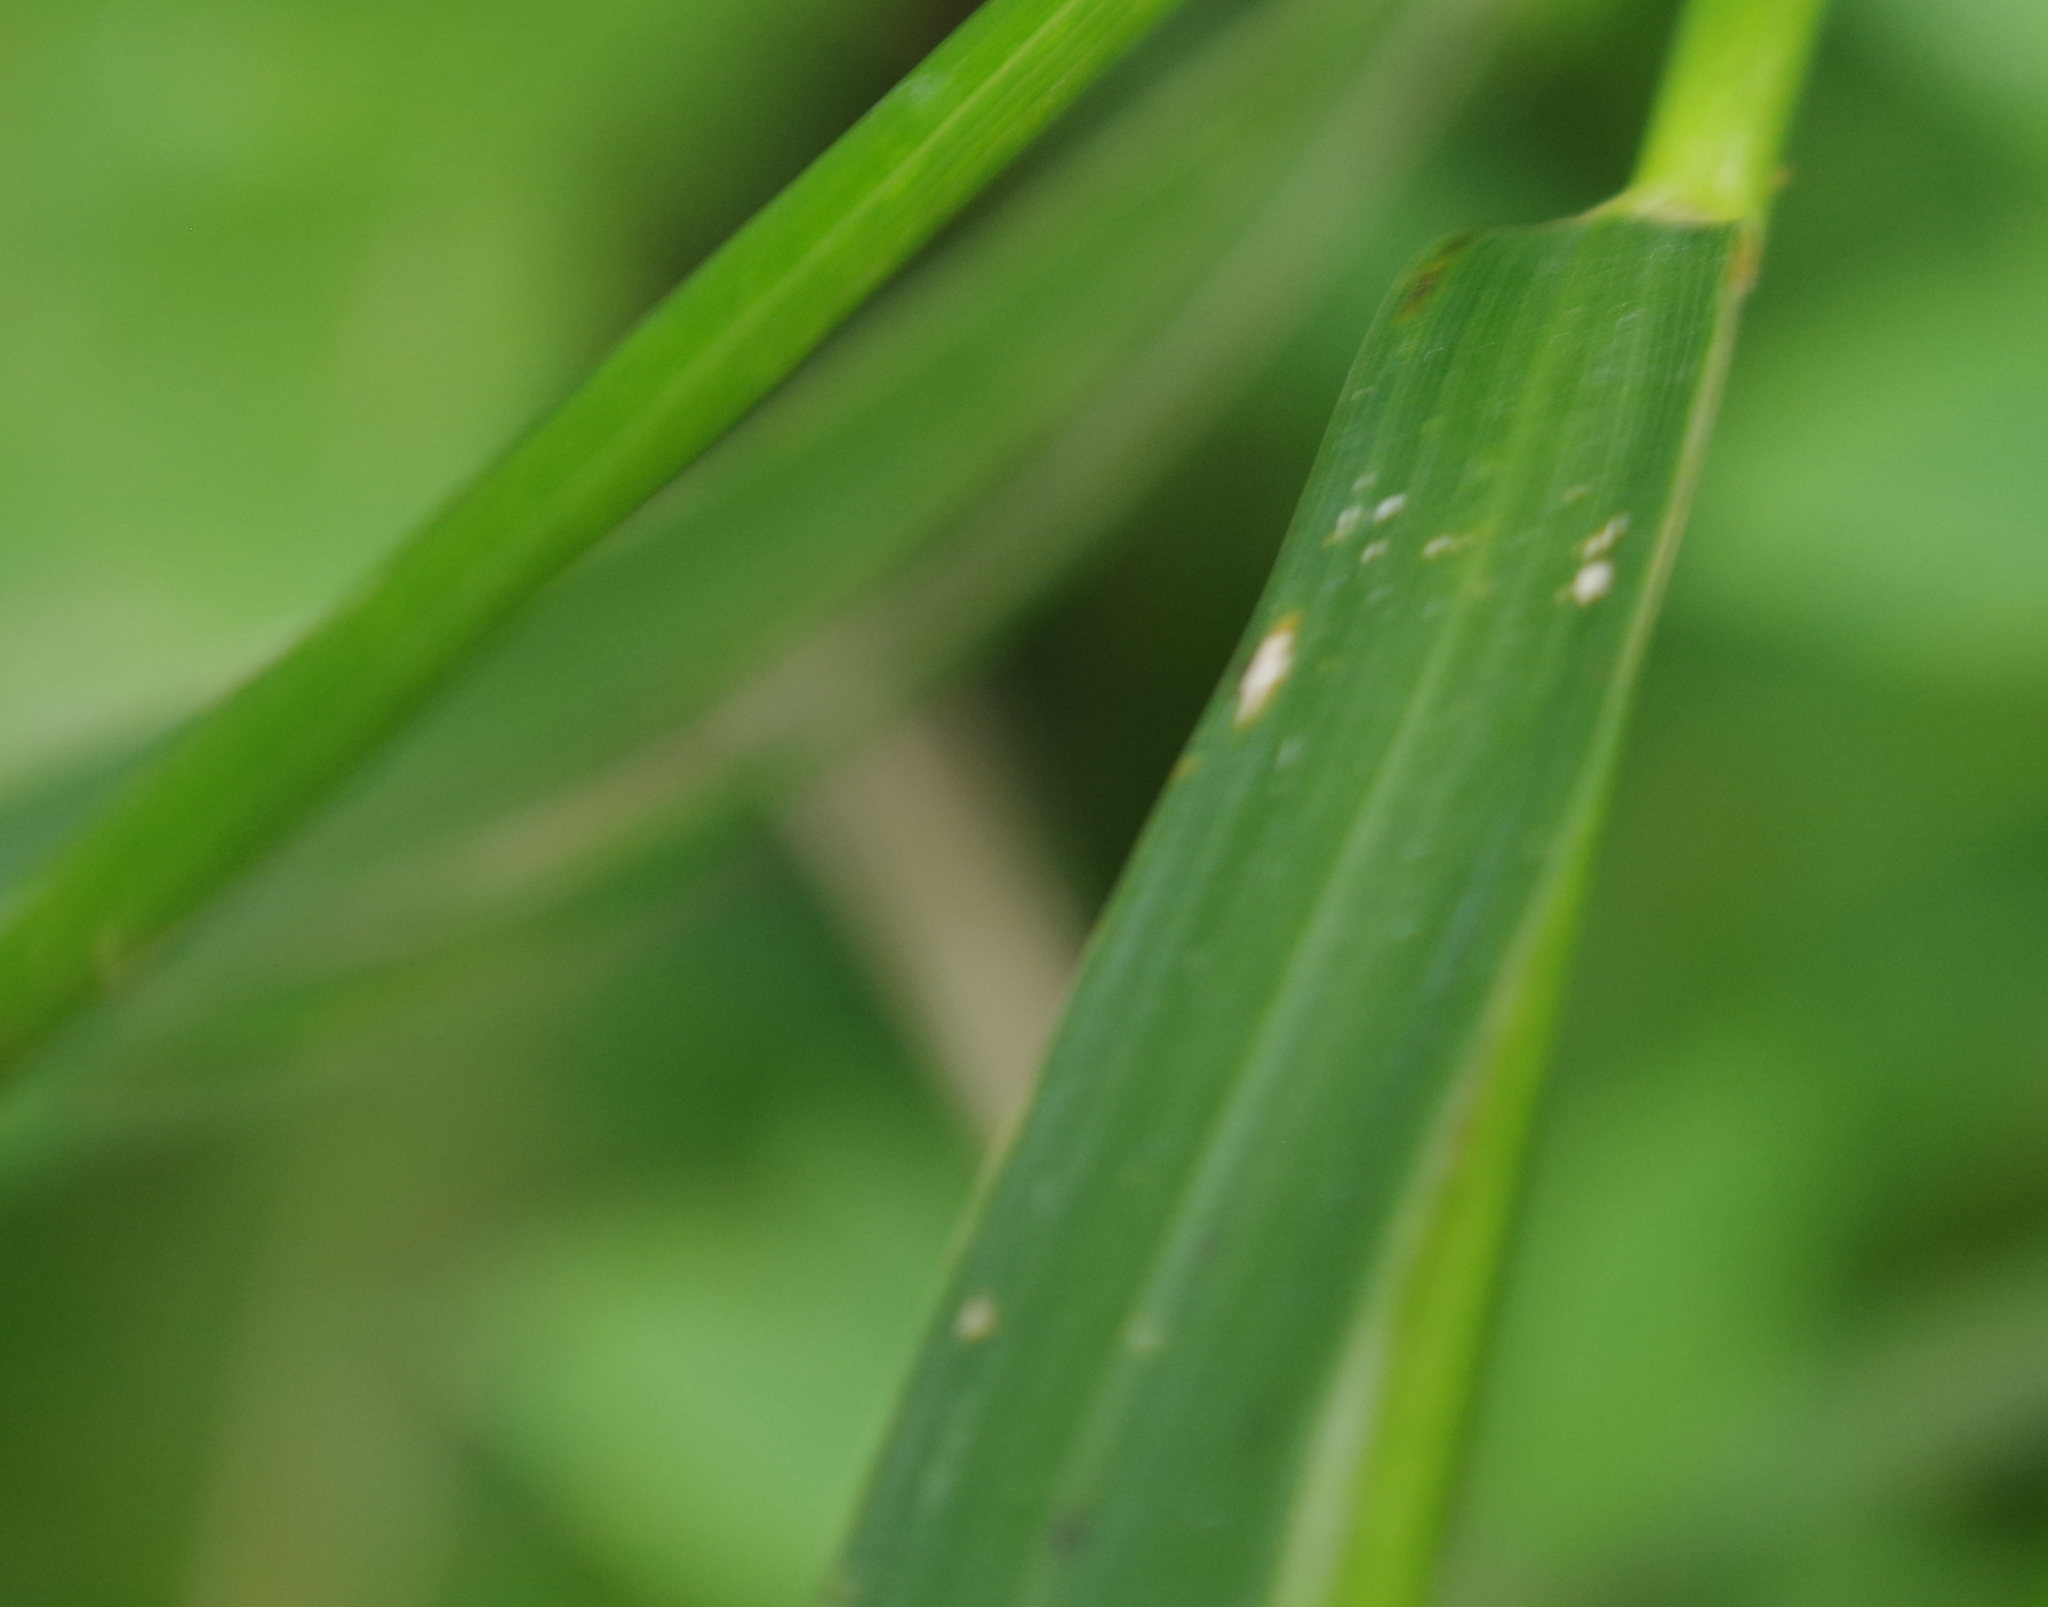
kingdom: Plantae
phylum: Tracheophyta
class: Liliopsida
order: Poales
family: Poaceae
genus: Elymus
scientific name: Elymus curvatus
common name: Awnless wild rye
